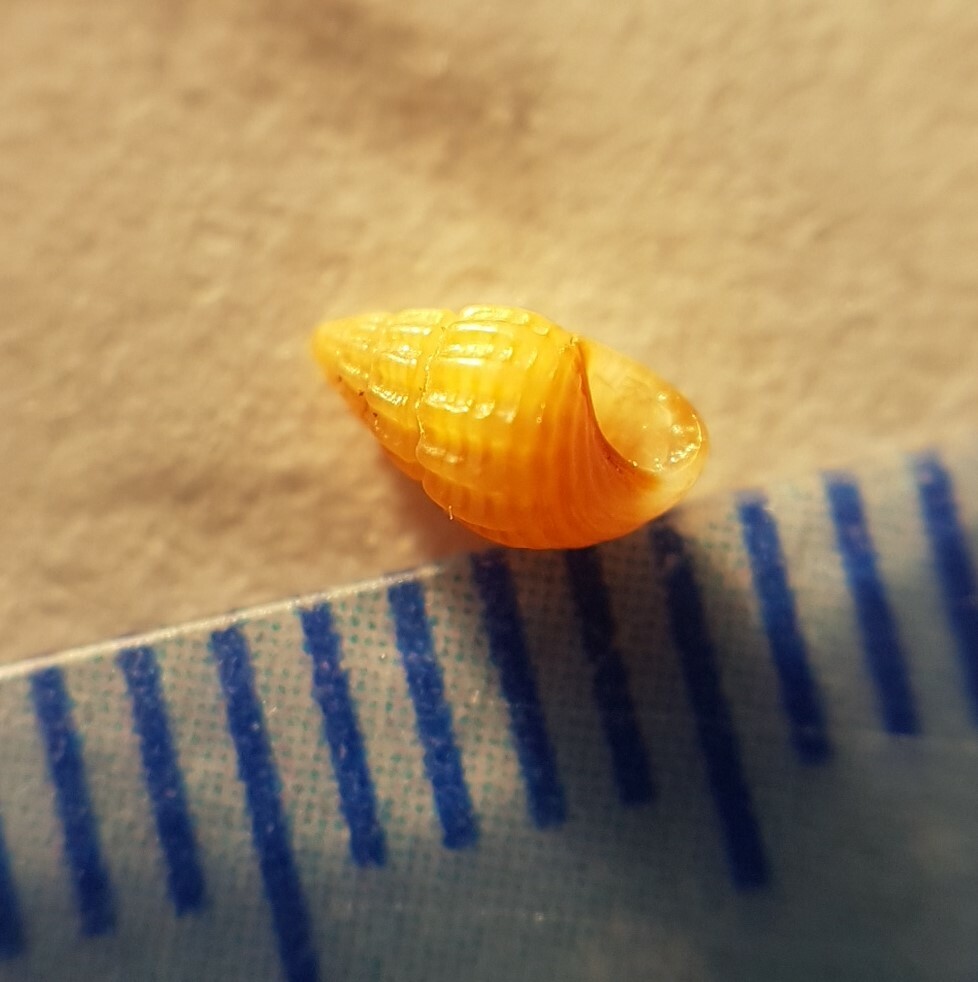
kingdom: Animalia
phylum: Mollusca
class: Gastropoda
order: Littorinimorpha
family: Rissoidae
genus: Alvania
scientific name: Alvania discors
